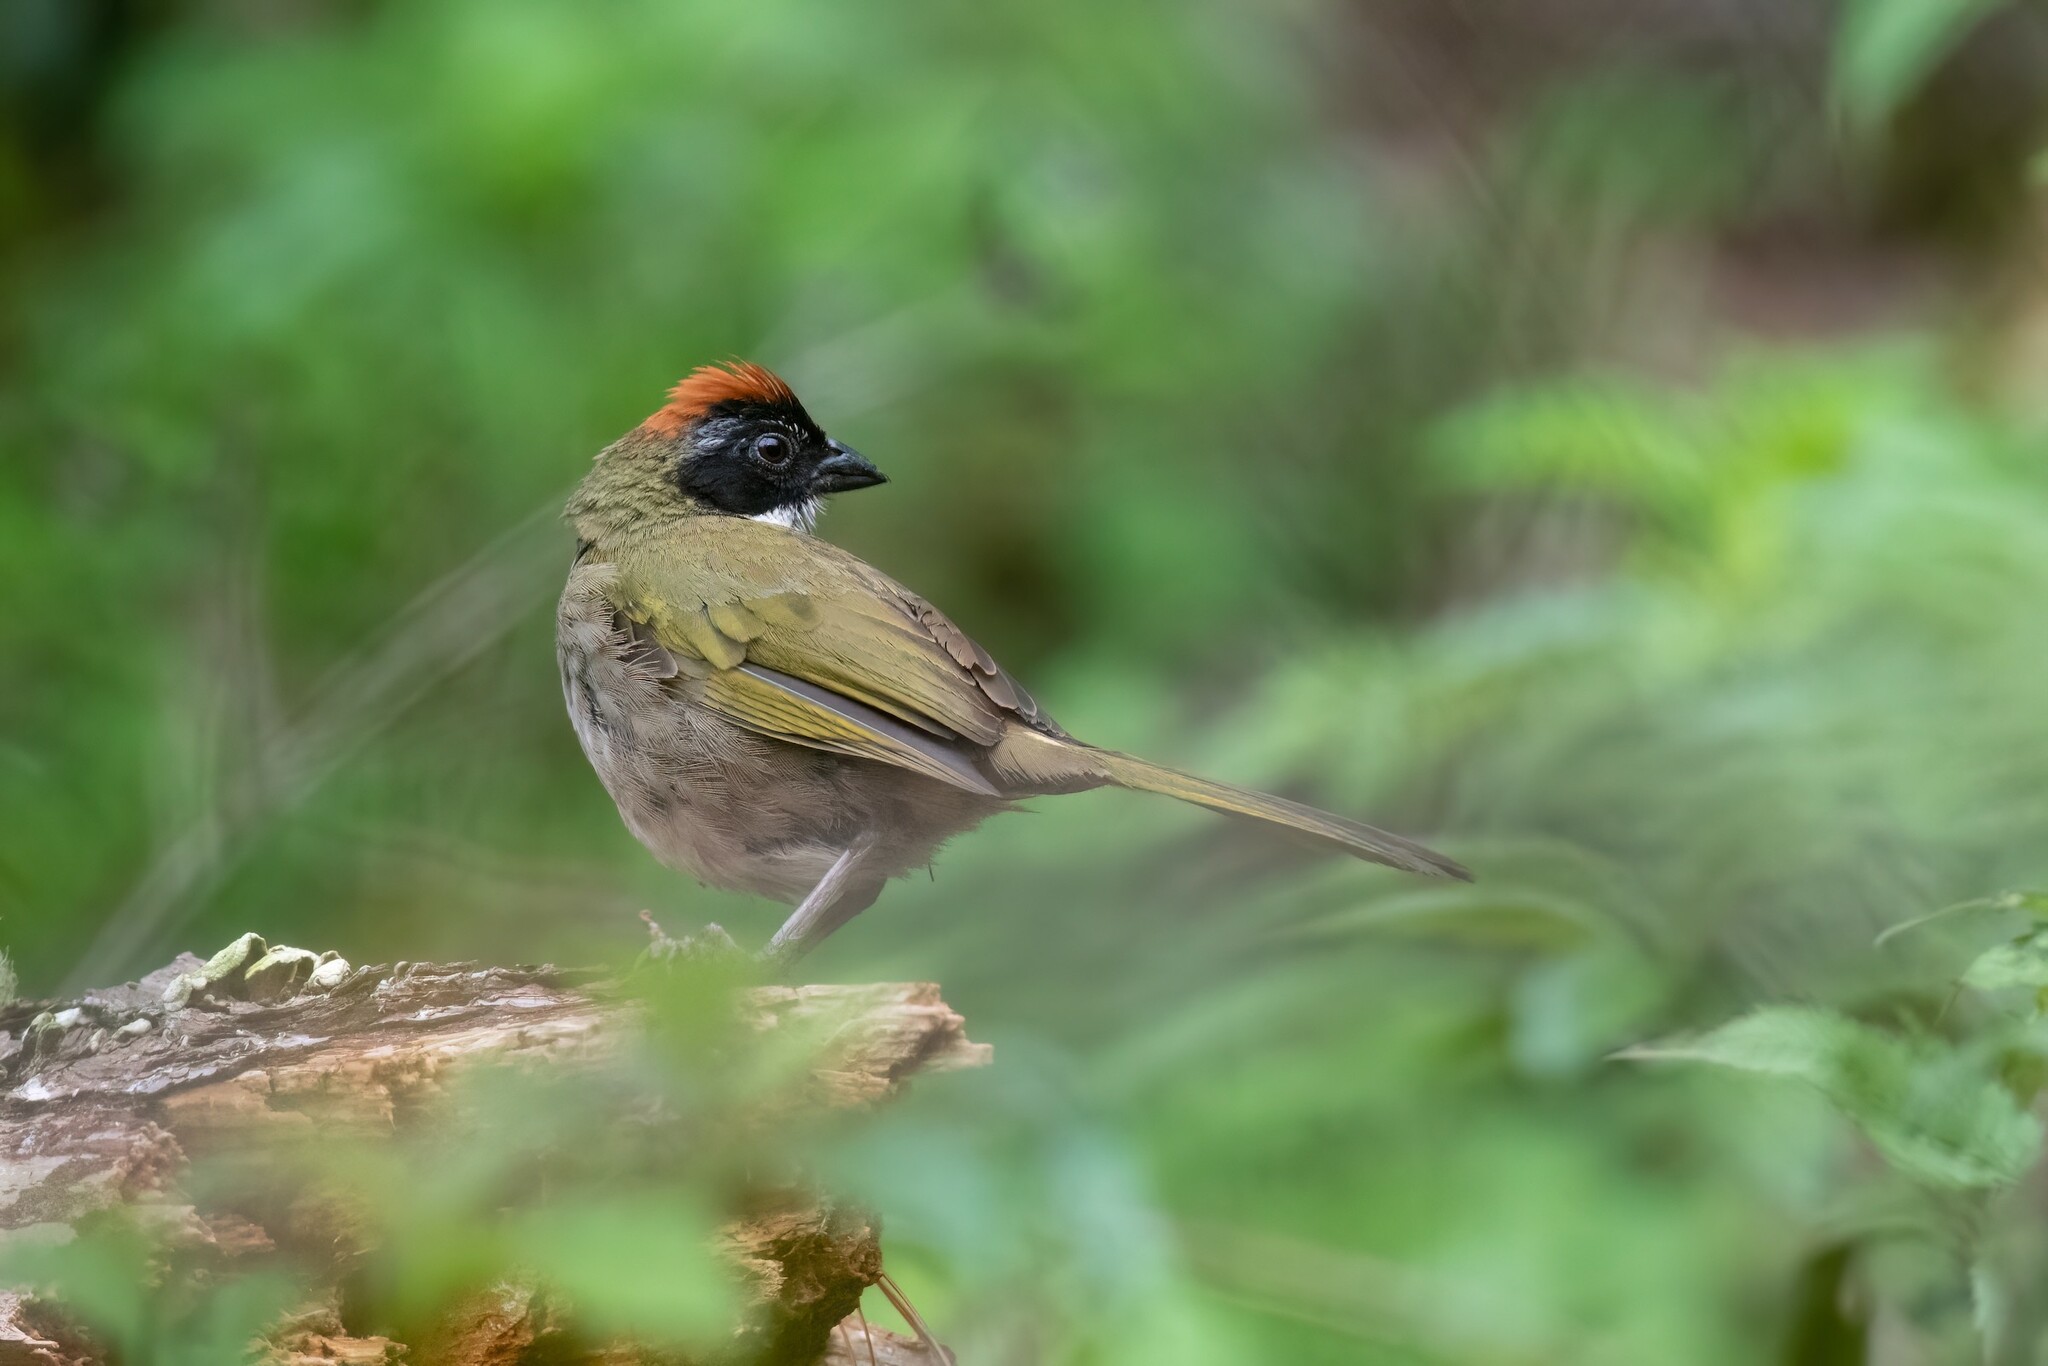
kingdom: Animalia
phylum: Chordata
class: Aves
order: Passeriformes
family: Passerellidae
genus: Pipilo
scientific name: Pipilo ocai
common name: Collared towhee
